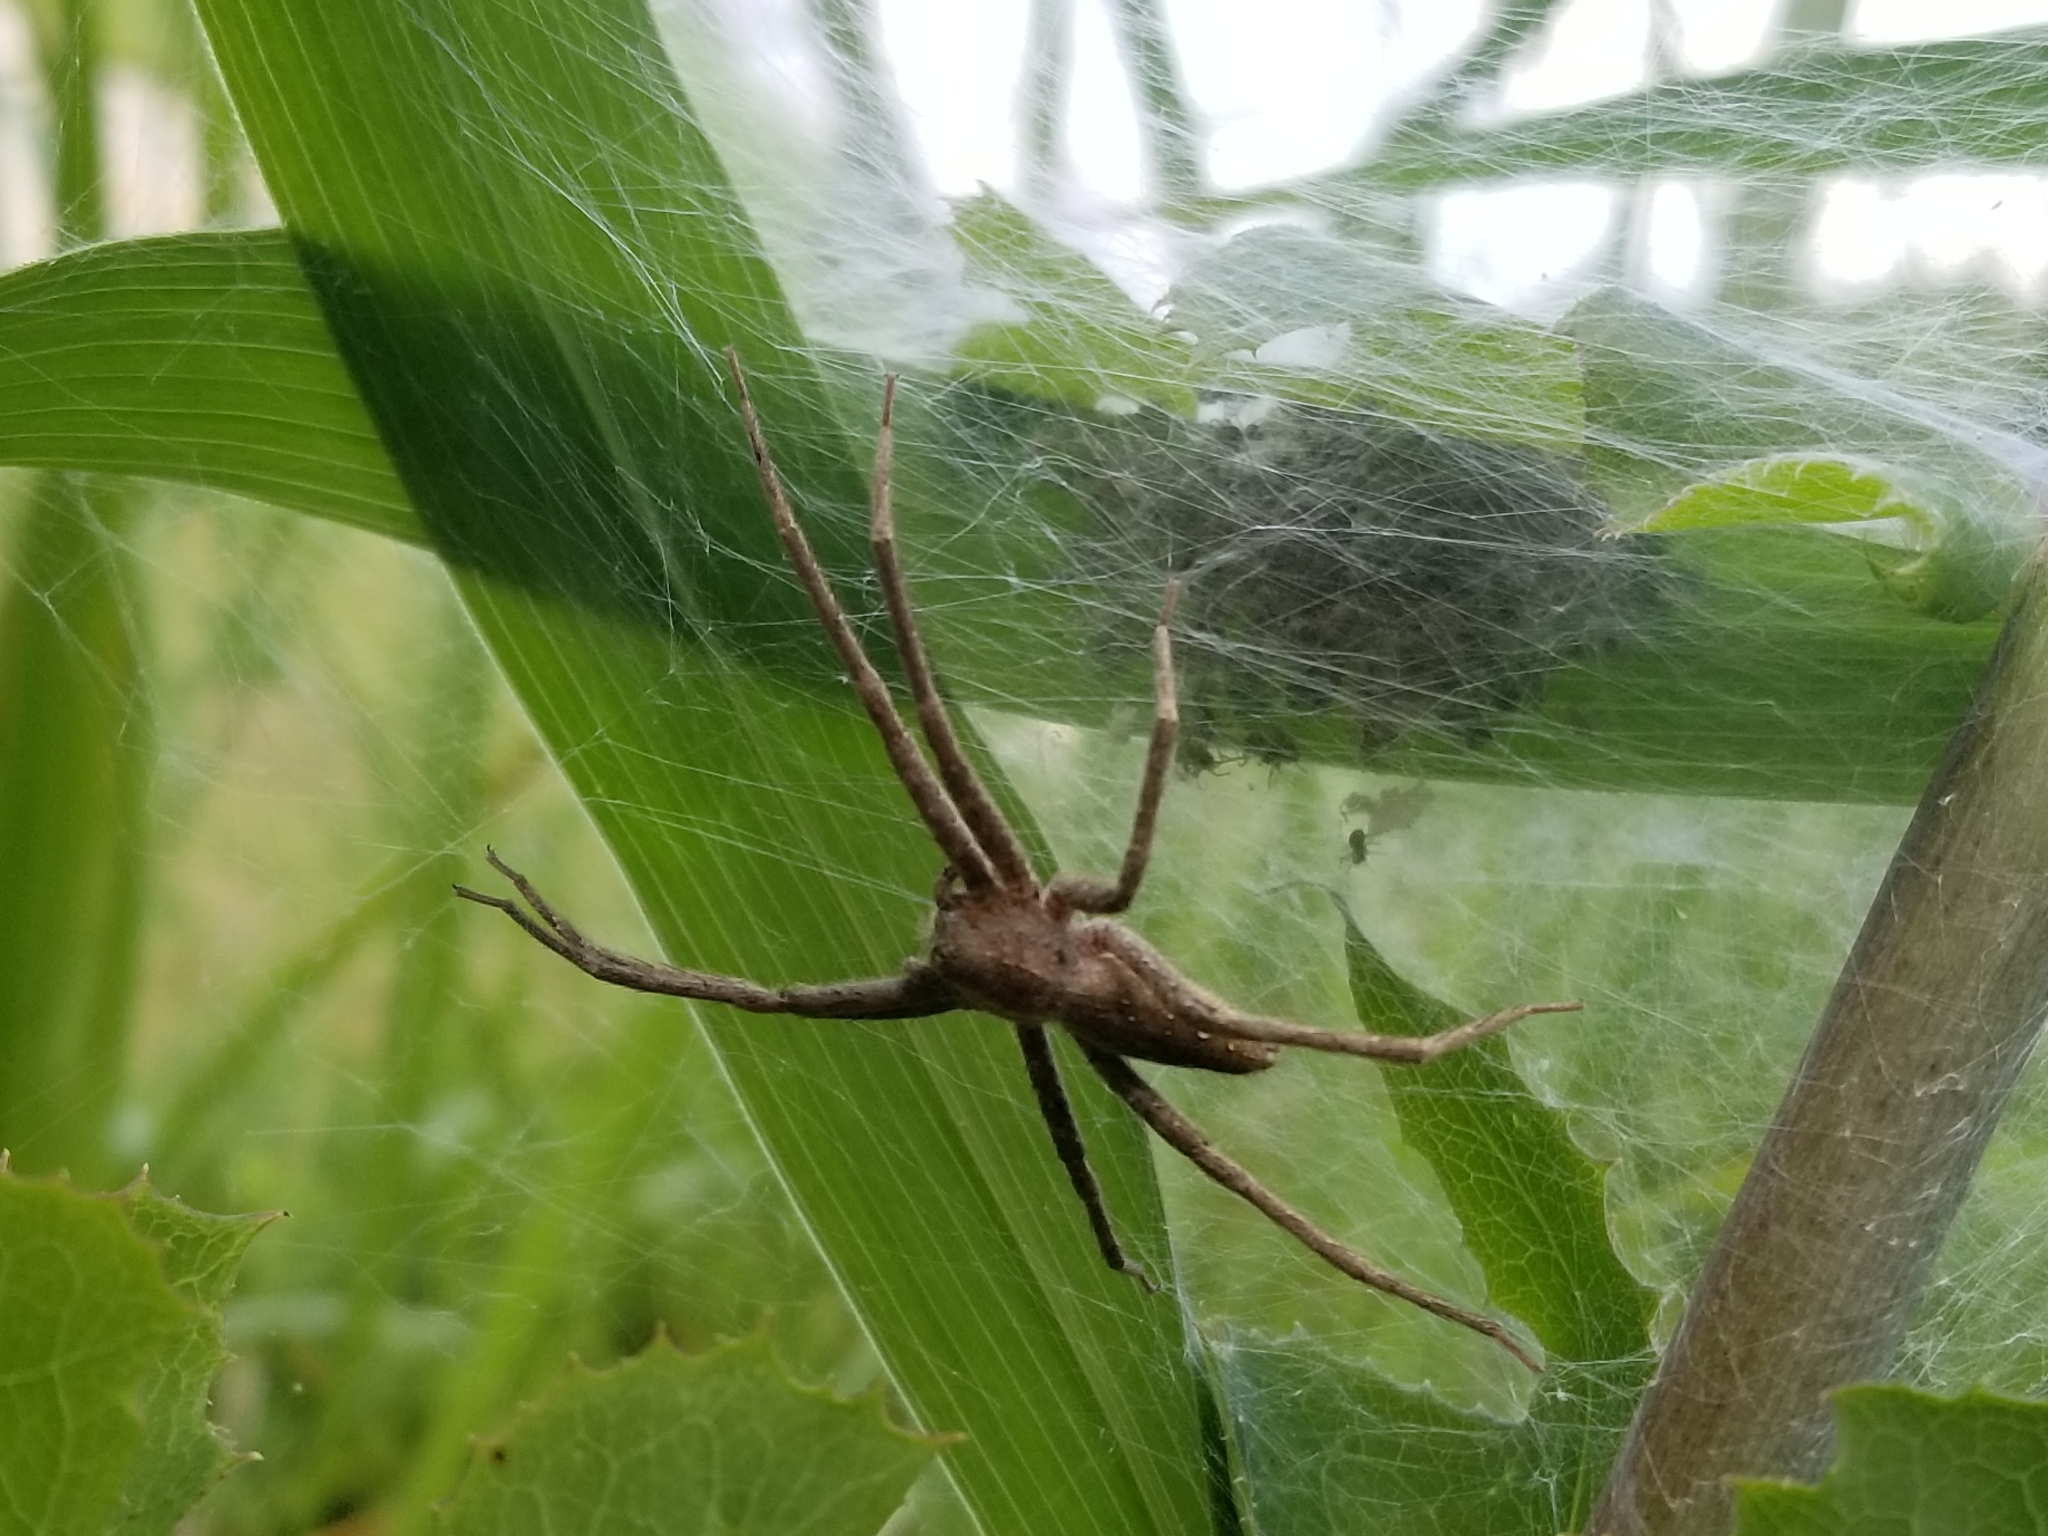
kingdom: Animalia
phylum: Arthropoda
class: Arachnida
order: Araneae
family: Pisauridae
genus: Pisaurina
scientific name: Pisaurina mira
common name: American nursery web spider
